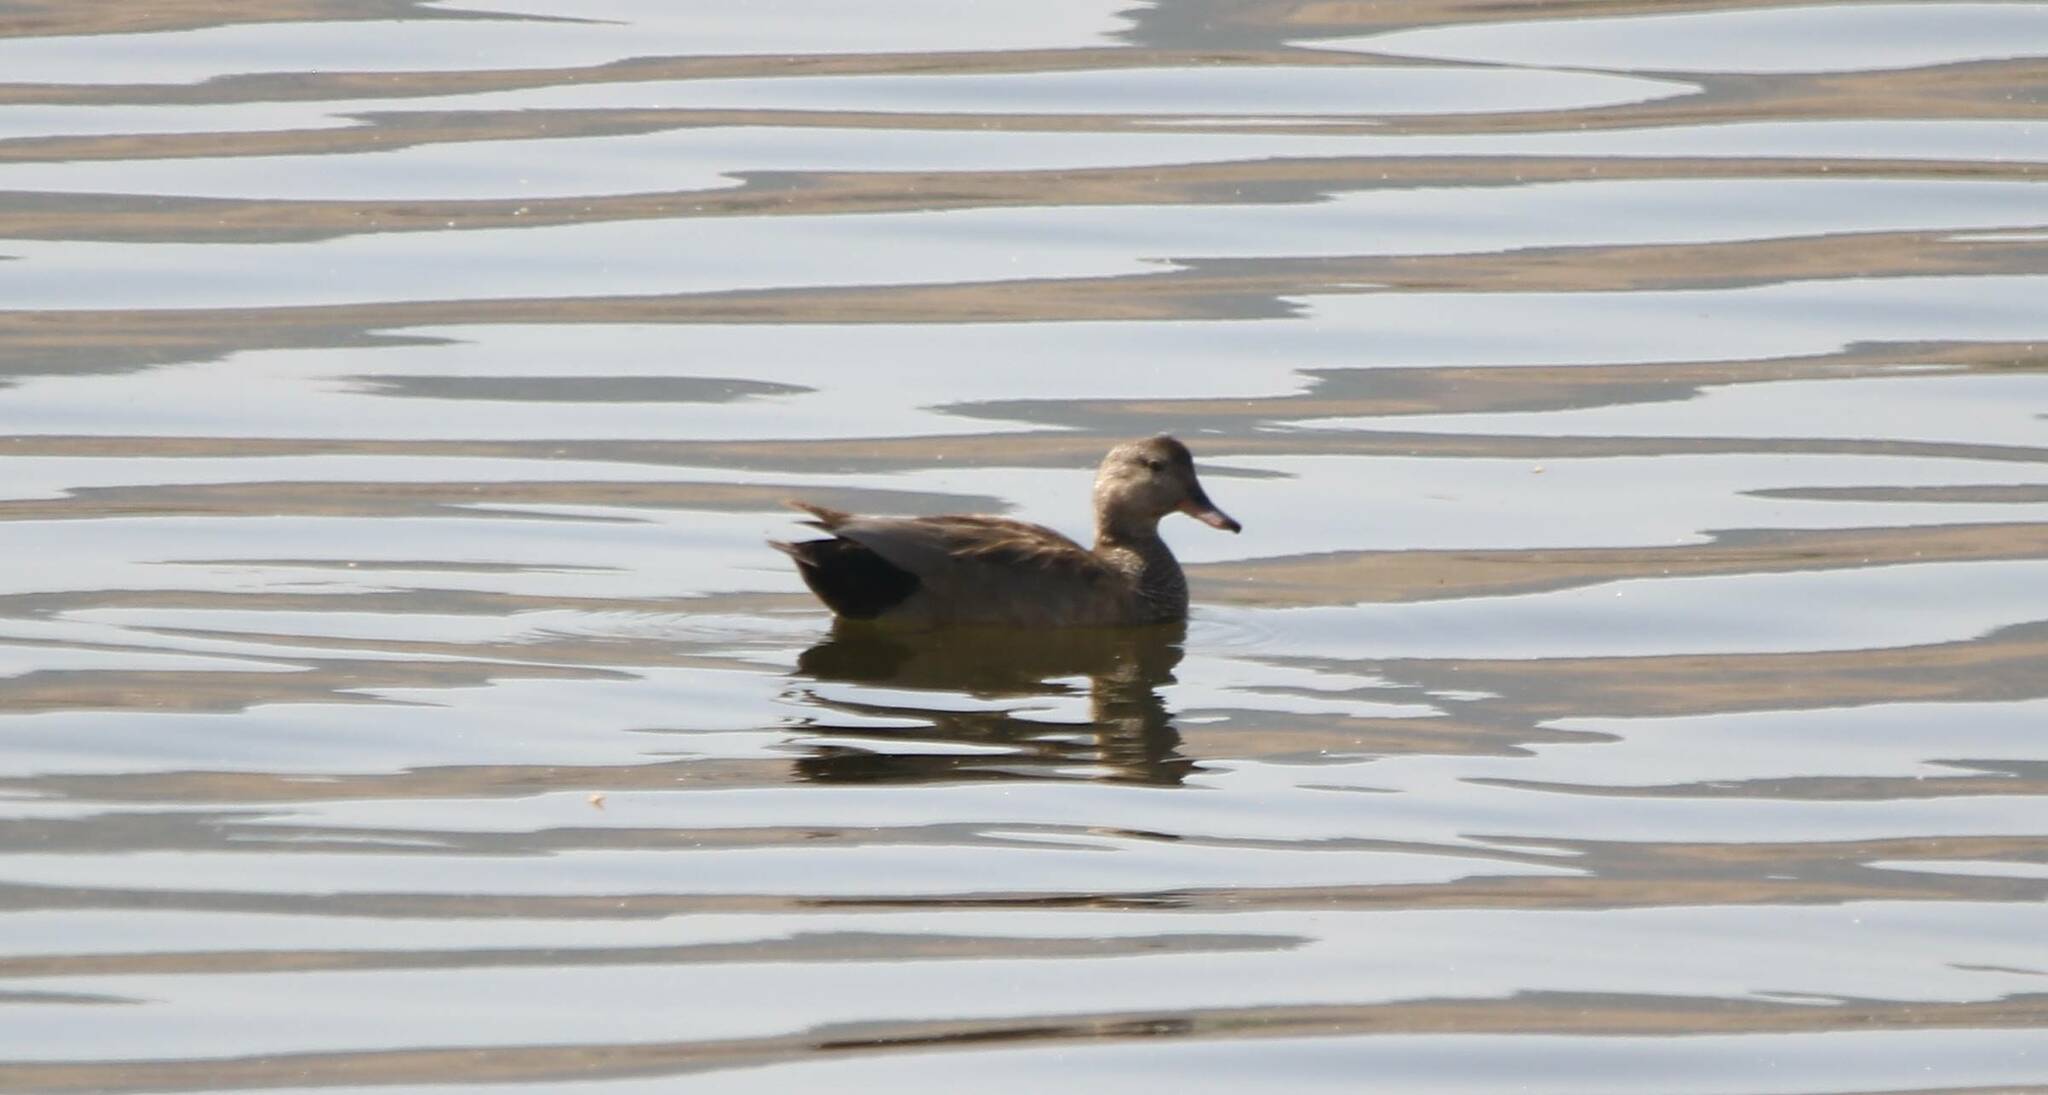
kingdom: Animalia
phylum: Chordata
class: Aves
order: Anseriformes
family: Anatidae
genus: Mareca
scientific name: Mareca strepera
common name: Gadwall
